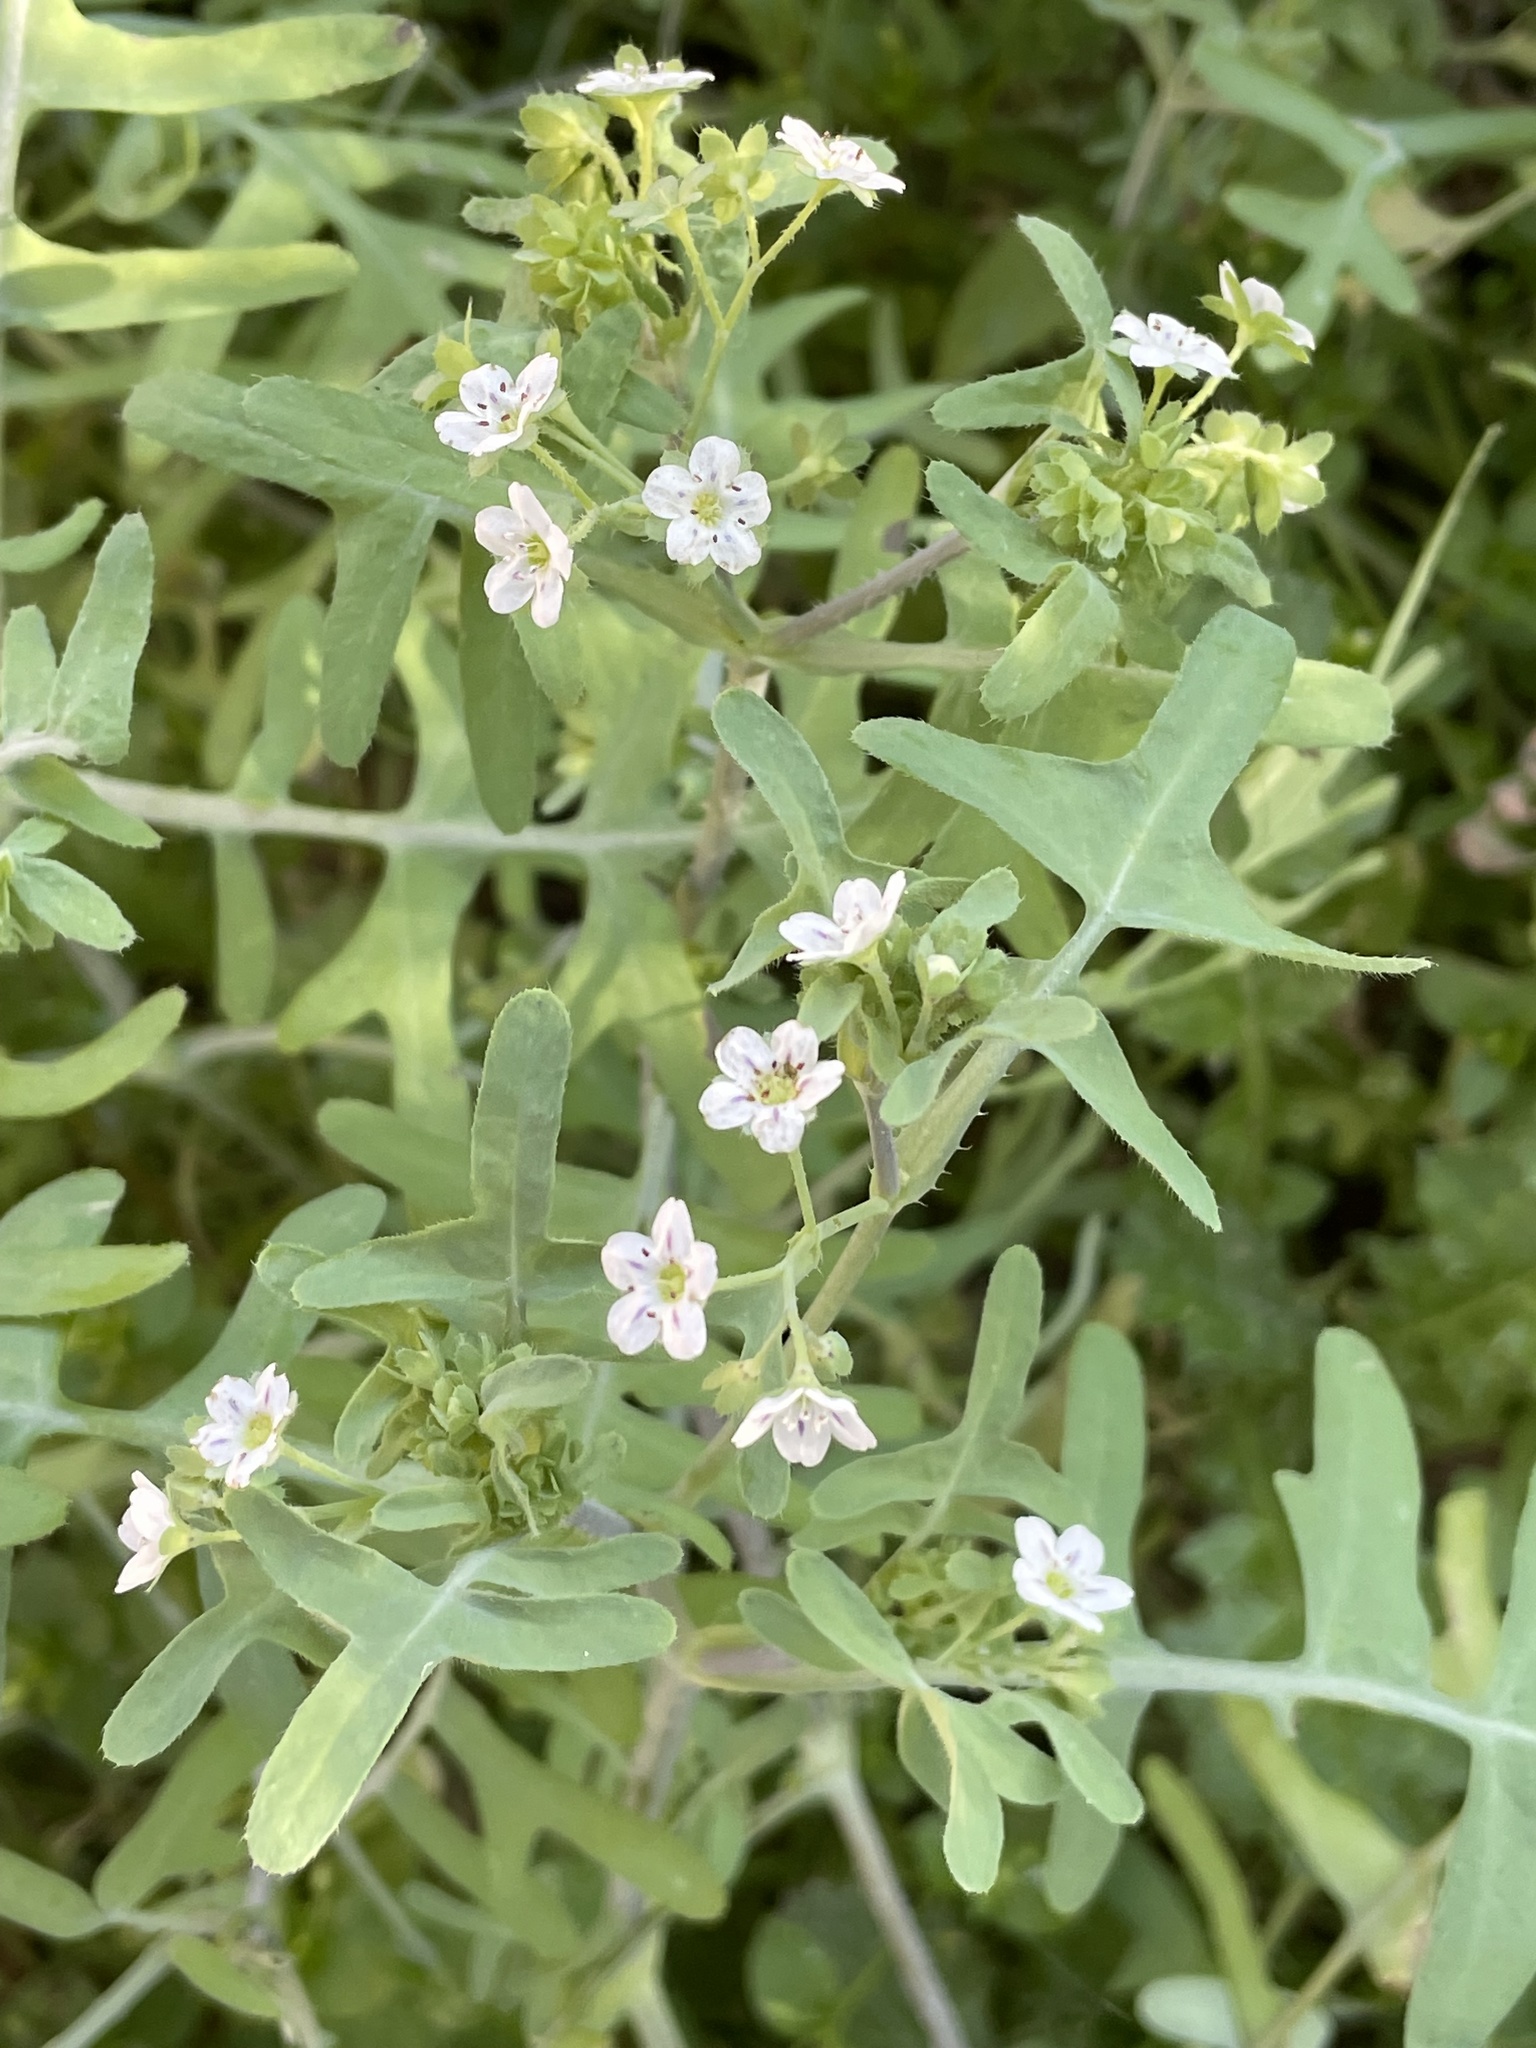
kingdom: Plantae
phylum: Tracheophyta
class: Magnoliopsida
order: Boraginales
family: Hydrophyllaceae
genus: Pholistoma
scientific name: Pholistoma membranaceum
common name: White fiesta-flower
